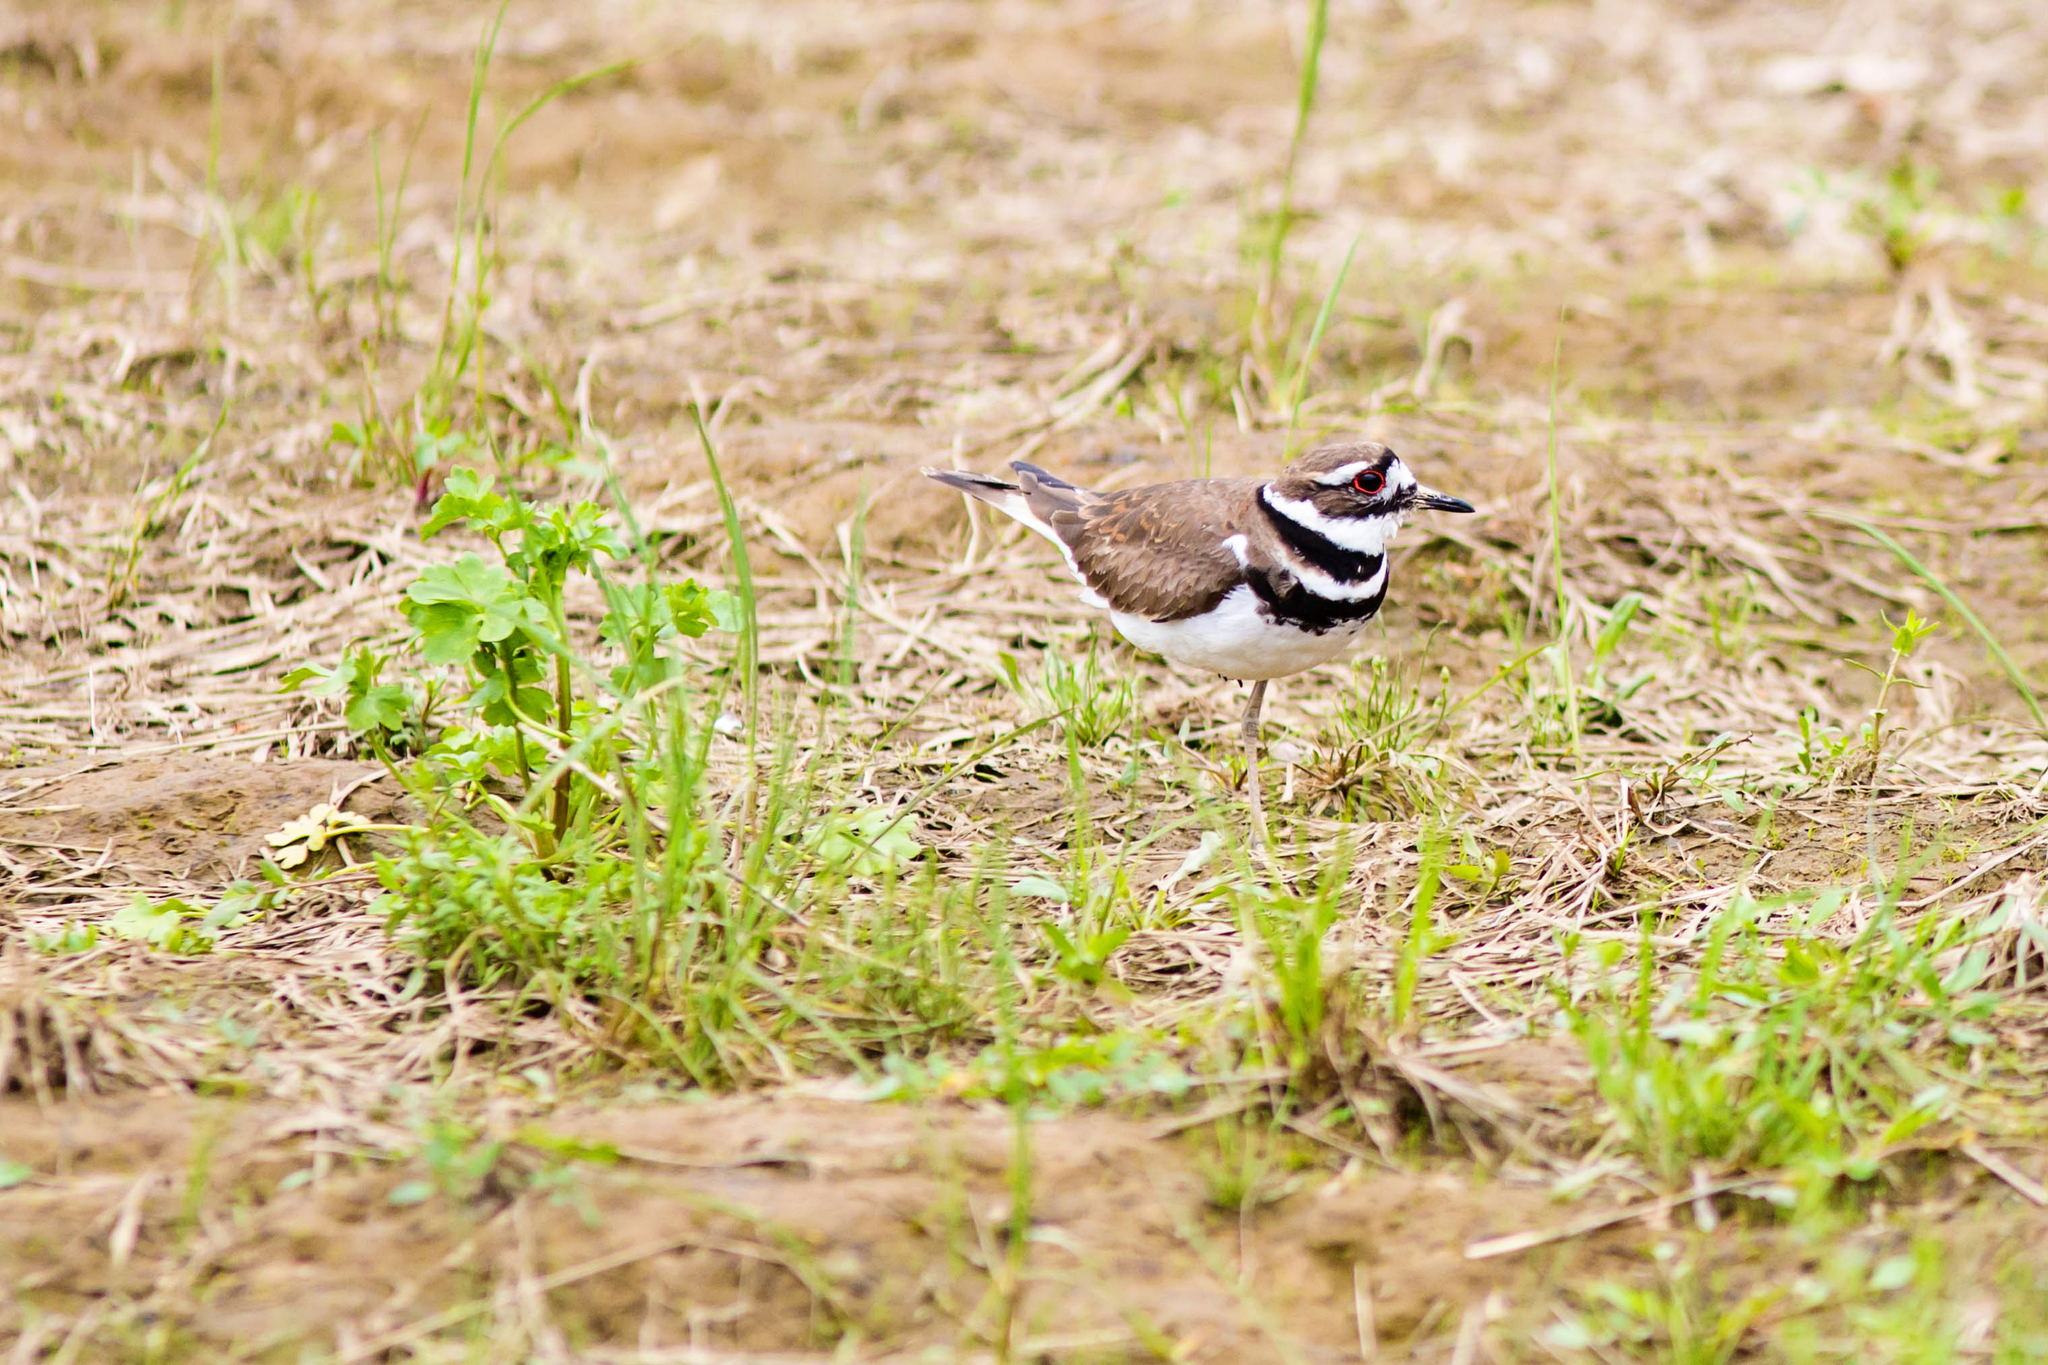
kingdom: Animalia
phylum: Chordata
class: Aves
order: Charadriiformes
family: Charadriidae
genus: Charadrius
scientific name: Charadrius vociferus
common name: Killdeer
